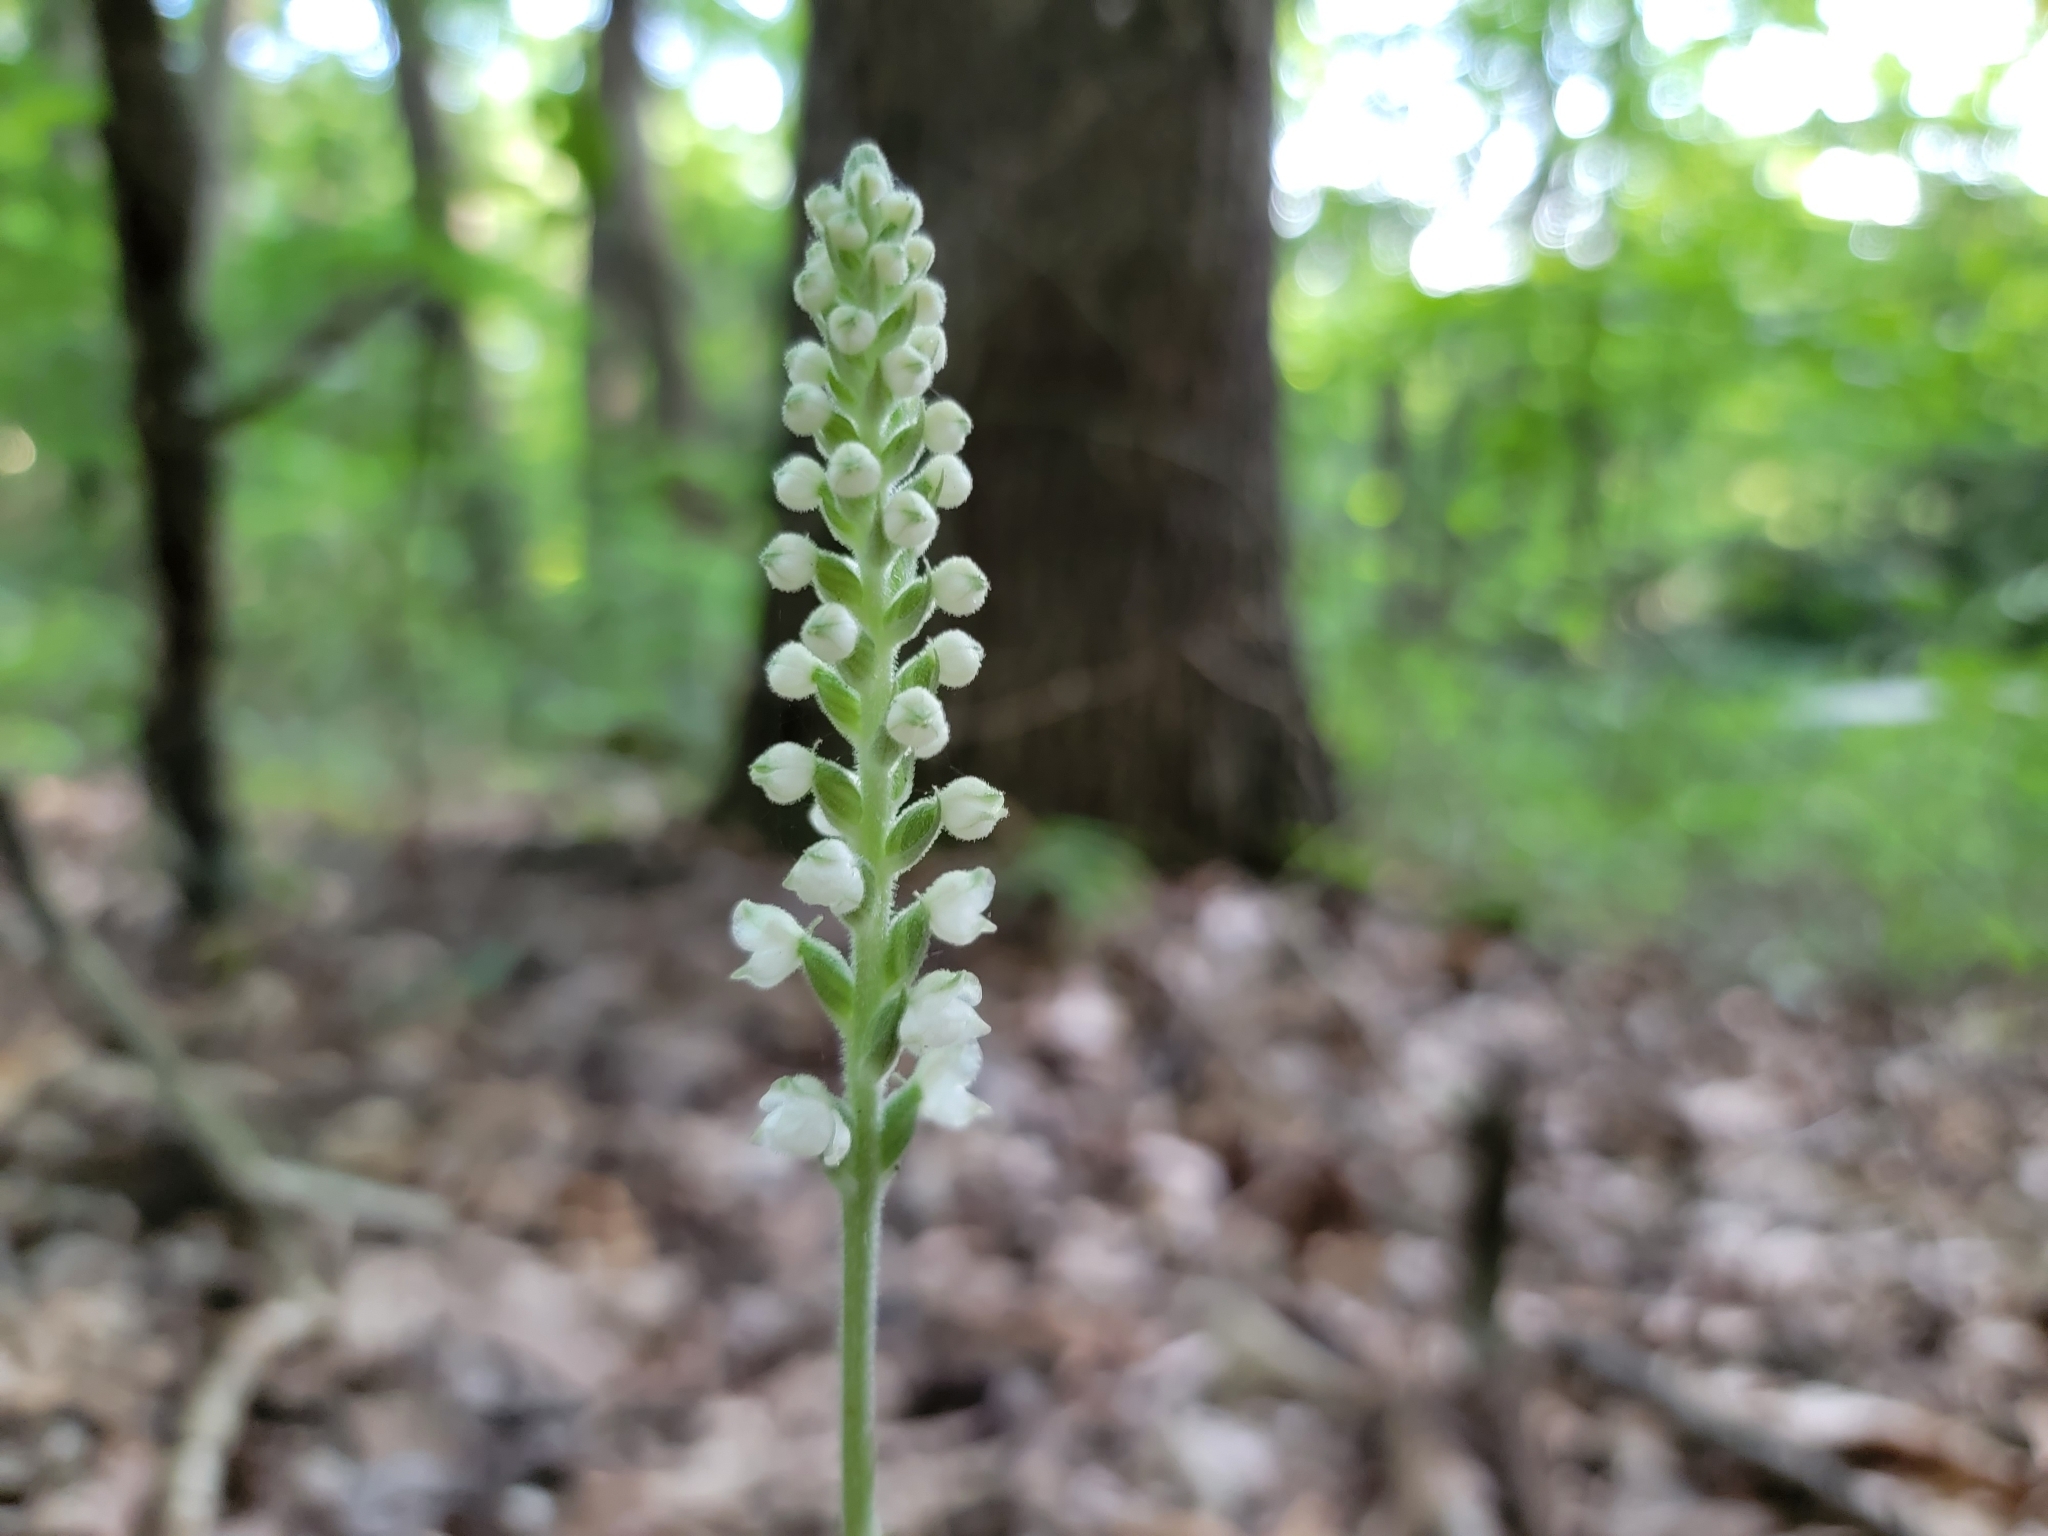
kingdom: Plantae
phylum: Tracheophyta
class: Liliopsida
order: Asparagales
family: Orchidaceae
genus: Goodyera
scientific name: Goodyera pubescens
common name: Downy rattlesnake-plantain
